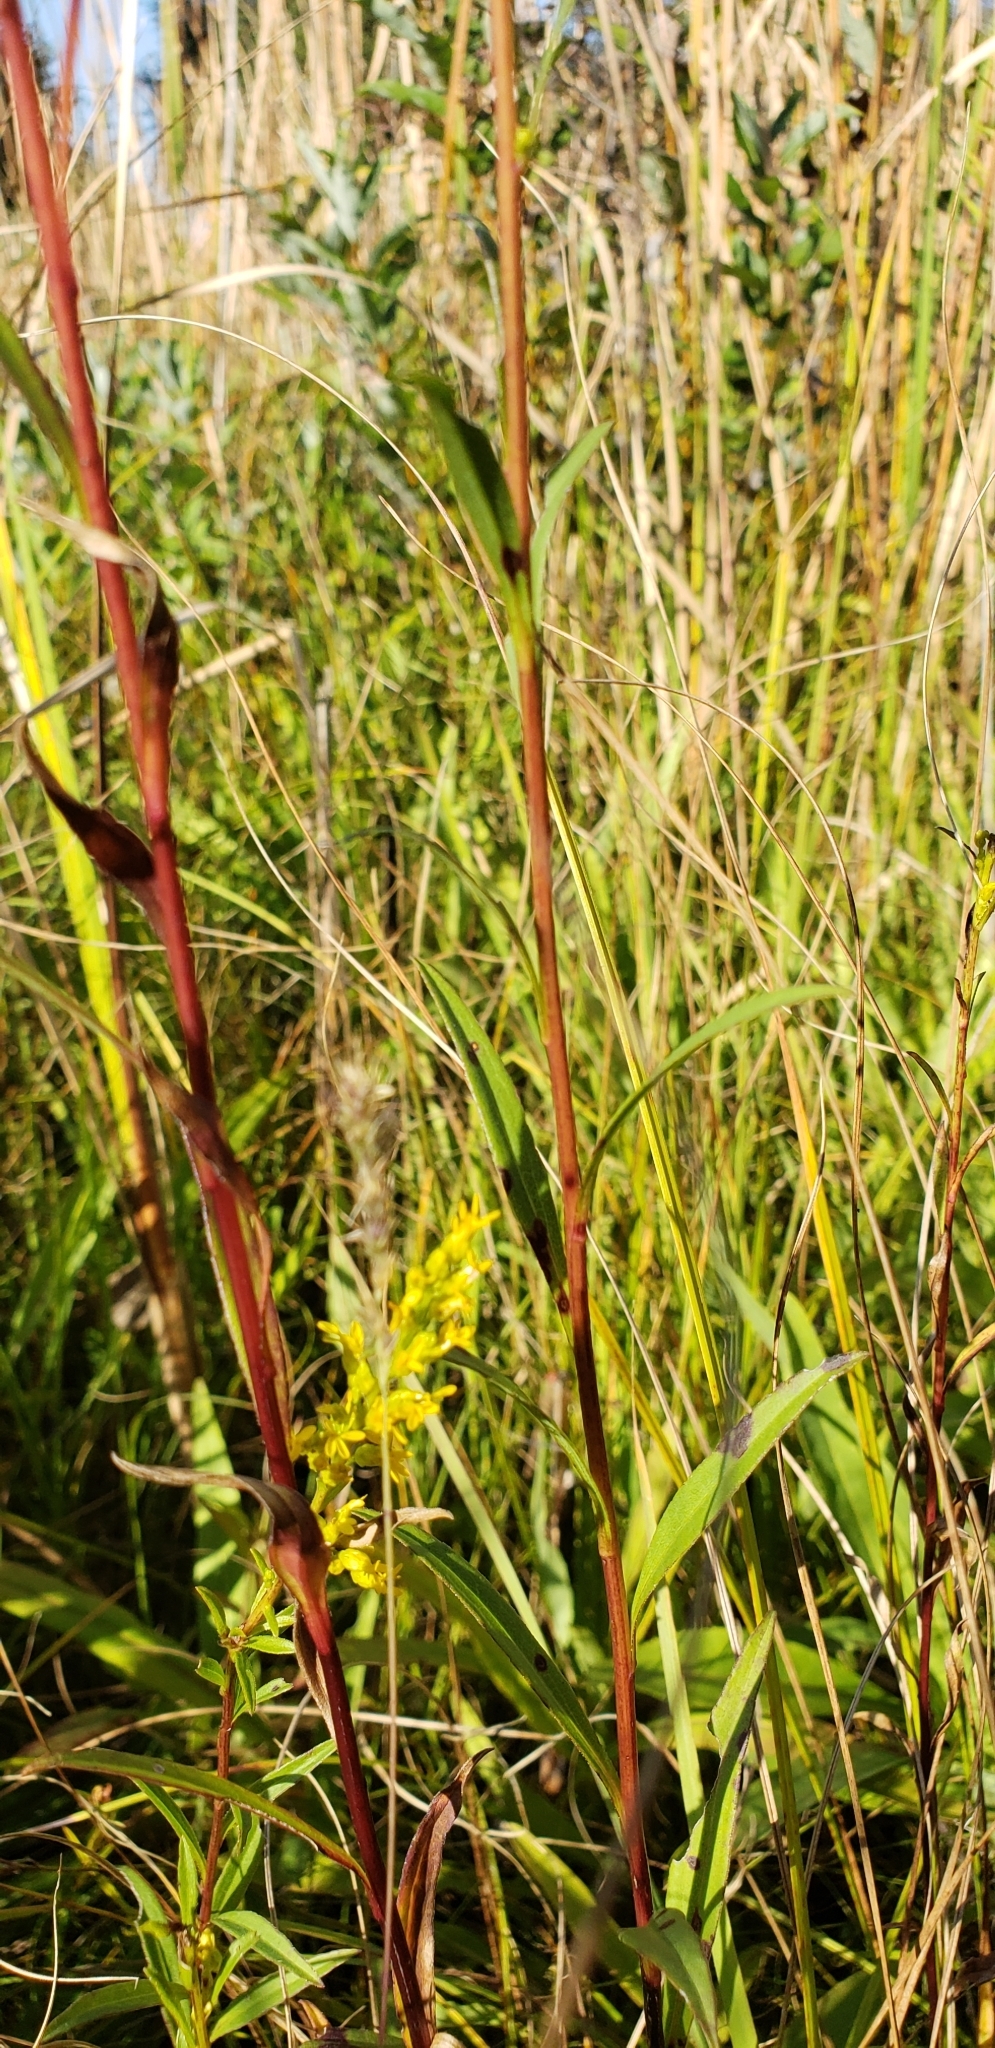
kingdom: Plantae
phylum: Tracheophyta
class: Magnoliopsida
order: Asterales
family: Asteraceae
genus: Solidago
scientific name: Solidago uliginosa
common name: Bog goldenrod
